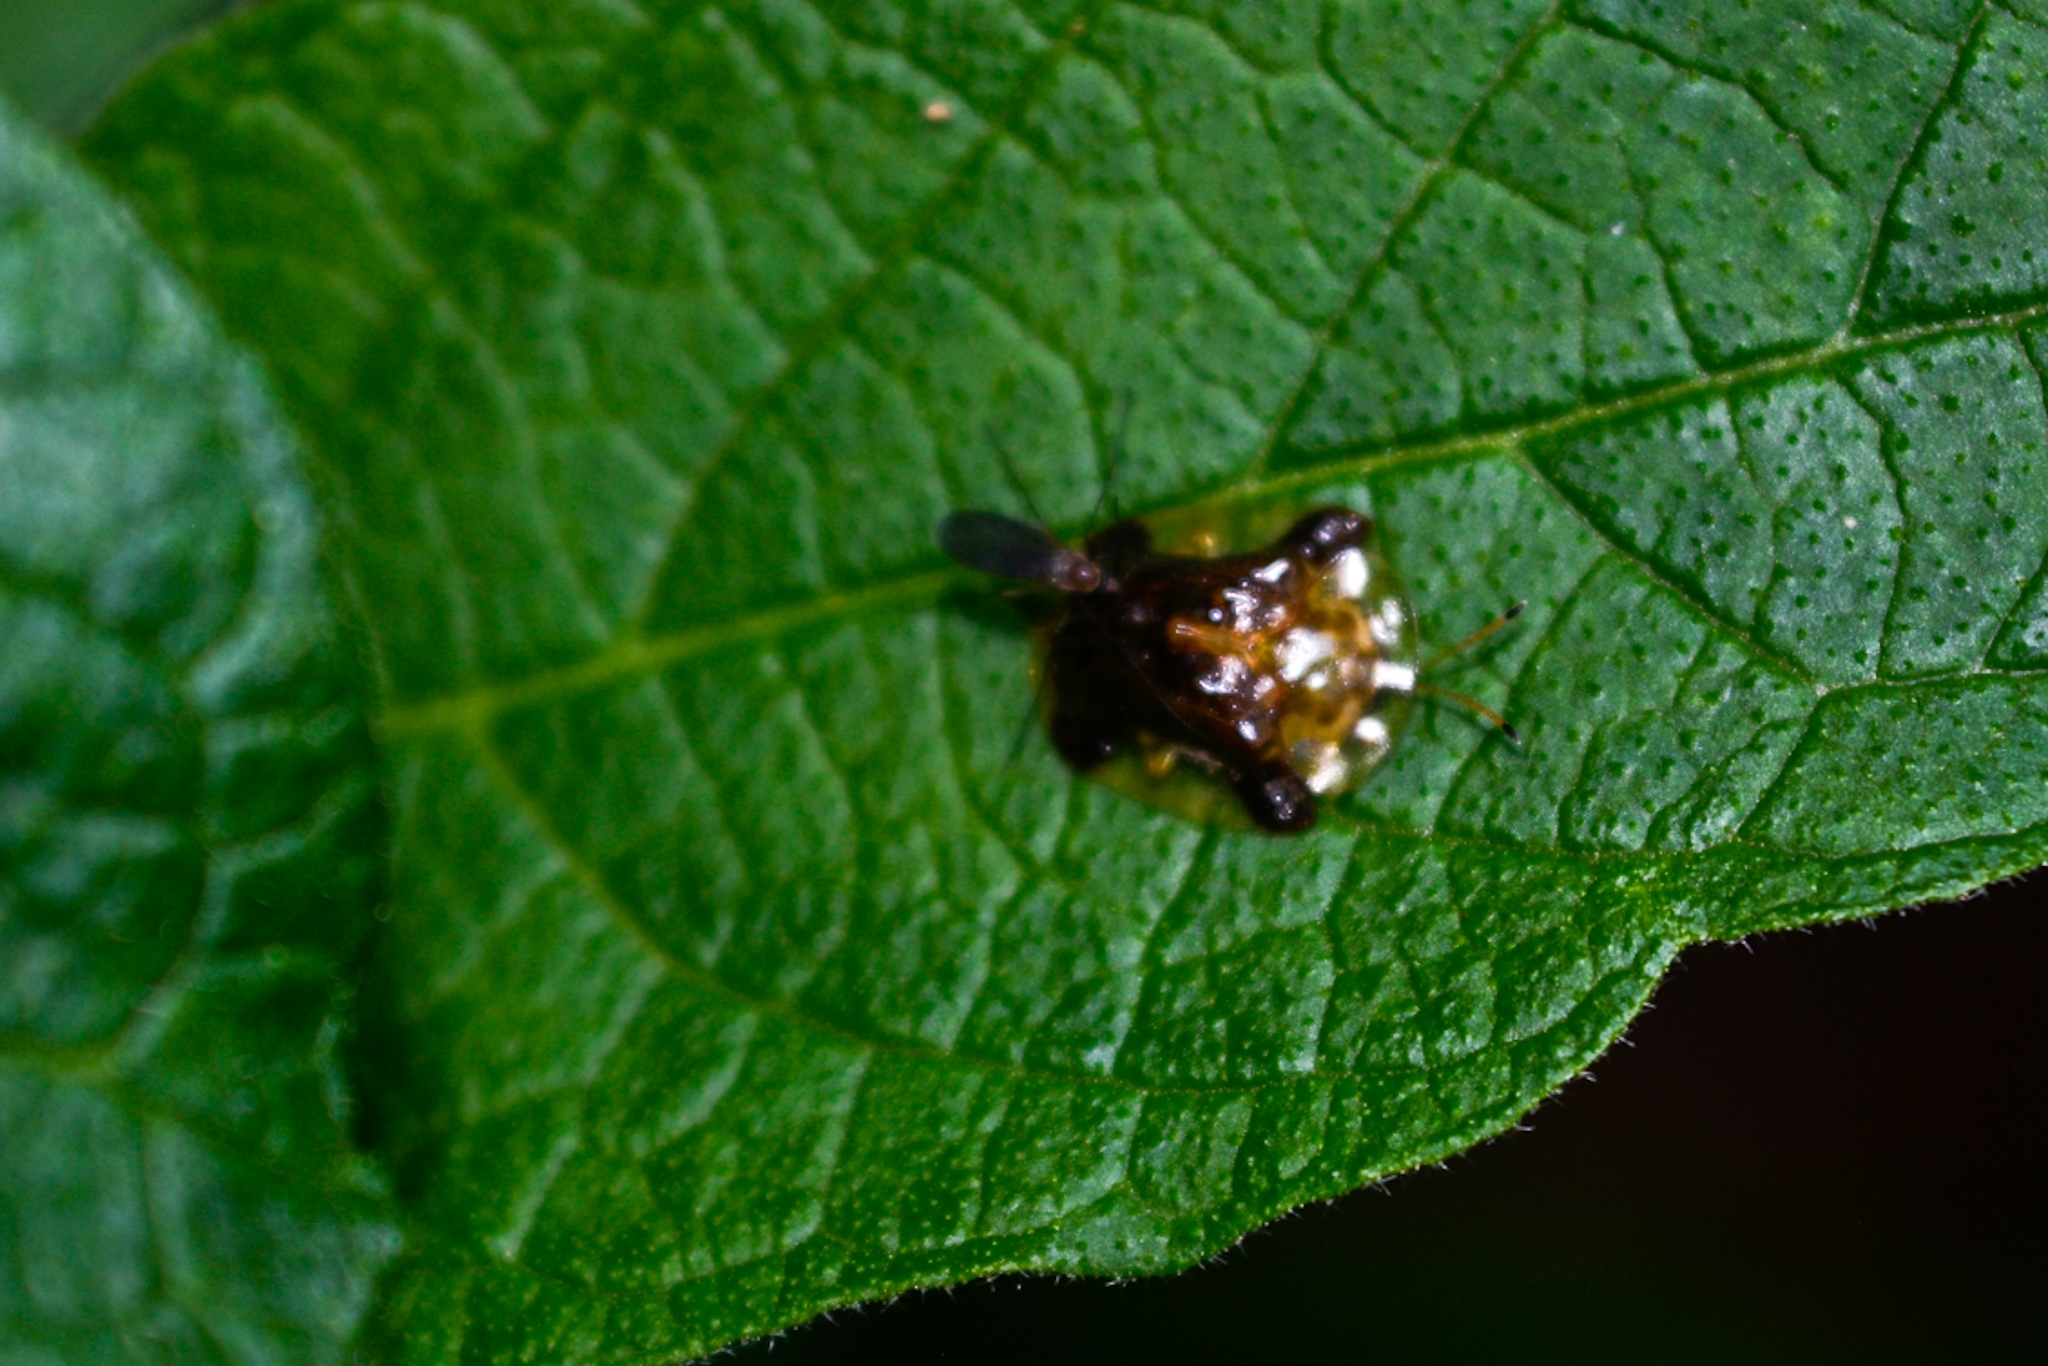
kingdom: Animalia
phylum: Arthropoda
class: Insecta
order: Coleoptera
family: Chrysomelidae
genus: Helocassis
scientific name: Helocassis testudinaria
